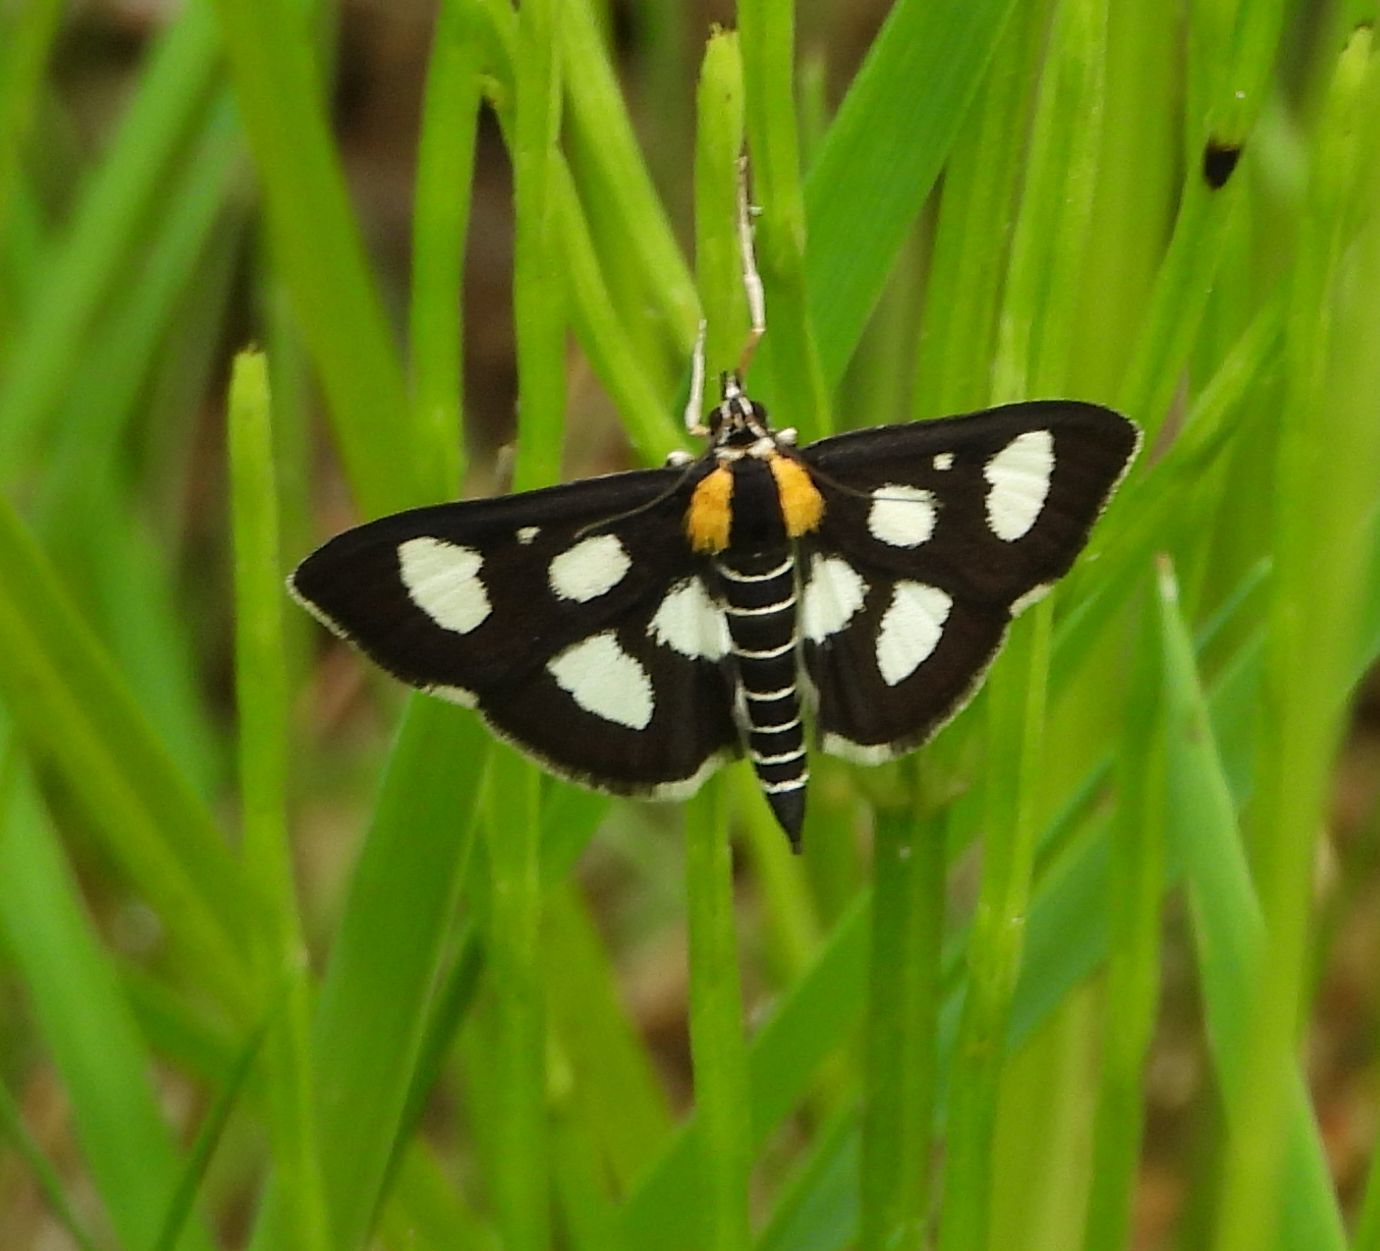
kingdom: Animalia
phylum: Arthropoda
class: Insecta
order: Lepidoptera
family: Crambidae
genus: Anania
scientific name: Anania funebris
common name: White-spotted sable moth
